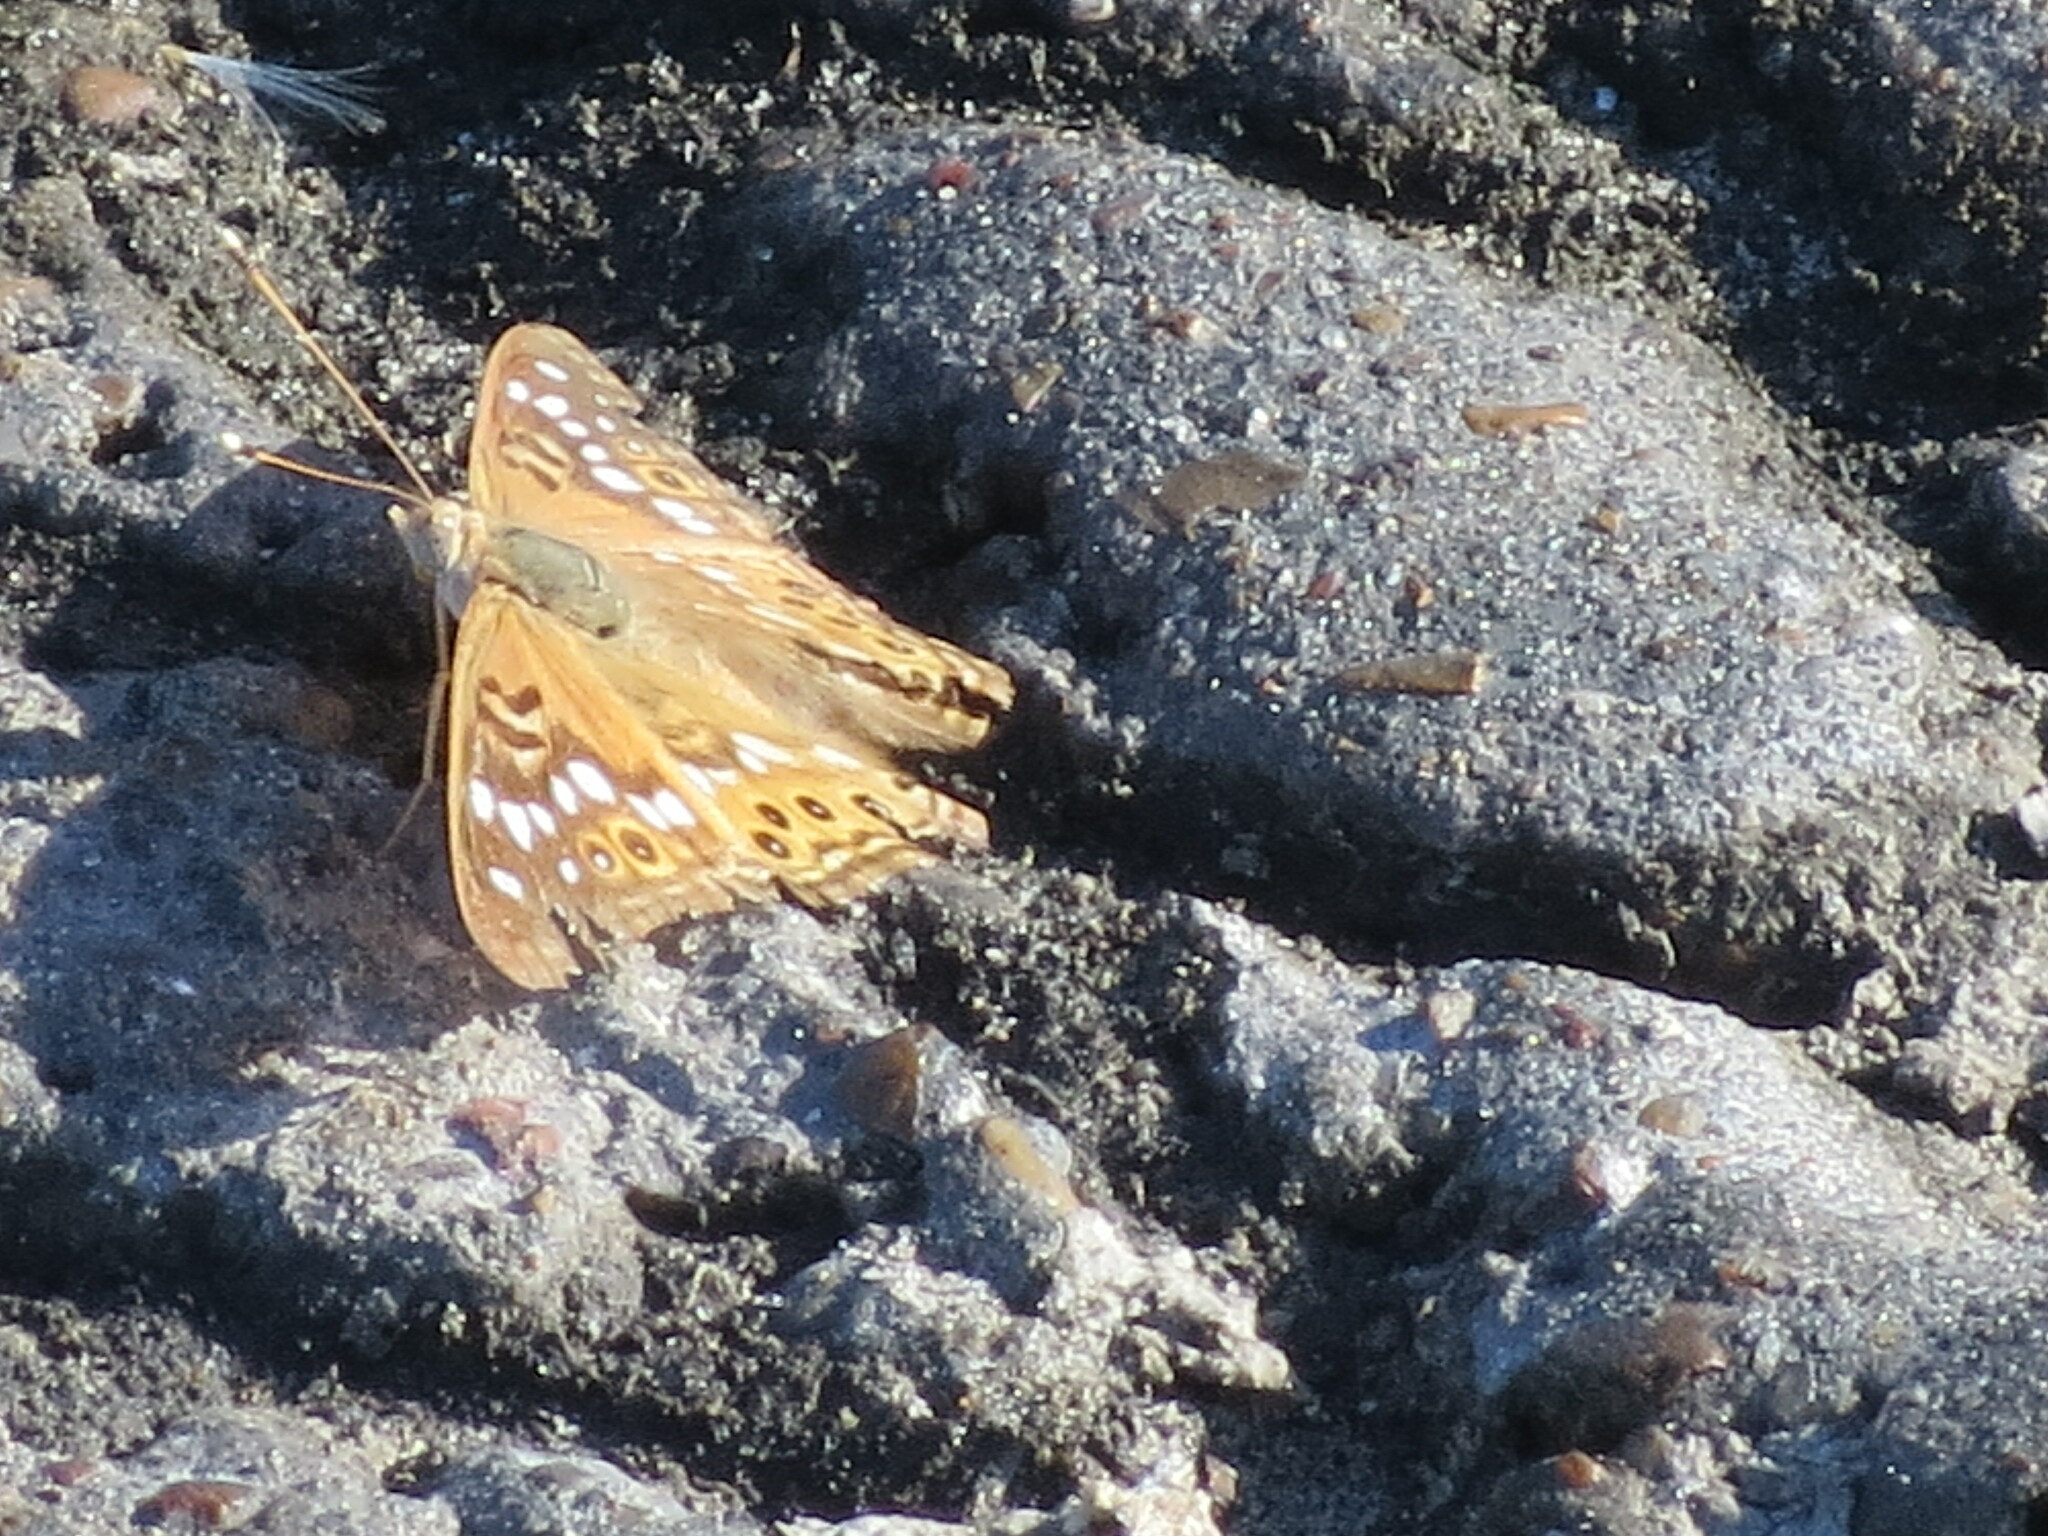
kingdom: Animalia
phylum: Arthropoda
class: Insecta
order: Lepidoptera
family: Nymphalidae
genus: Asterocampa
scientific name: Asterocampa celtis
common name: Hackberry emperor
